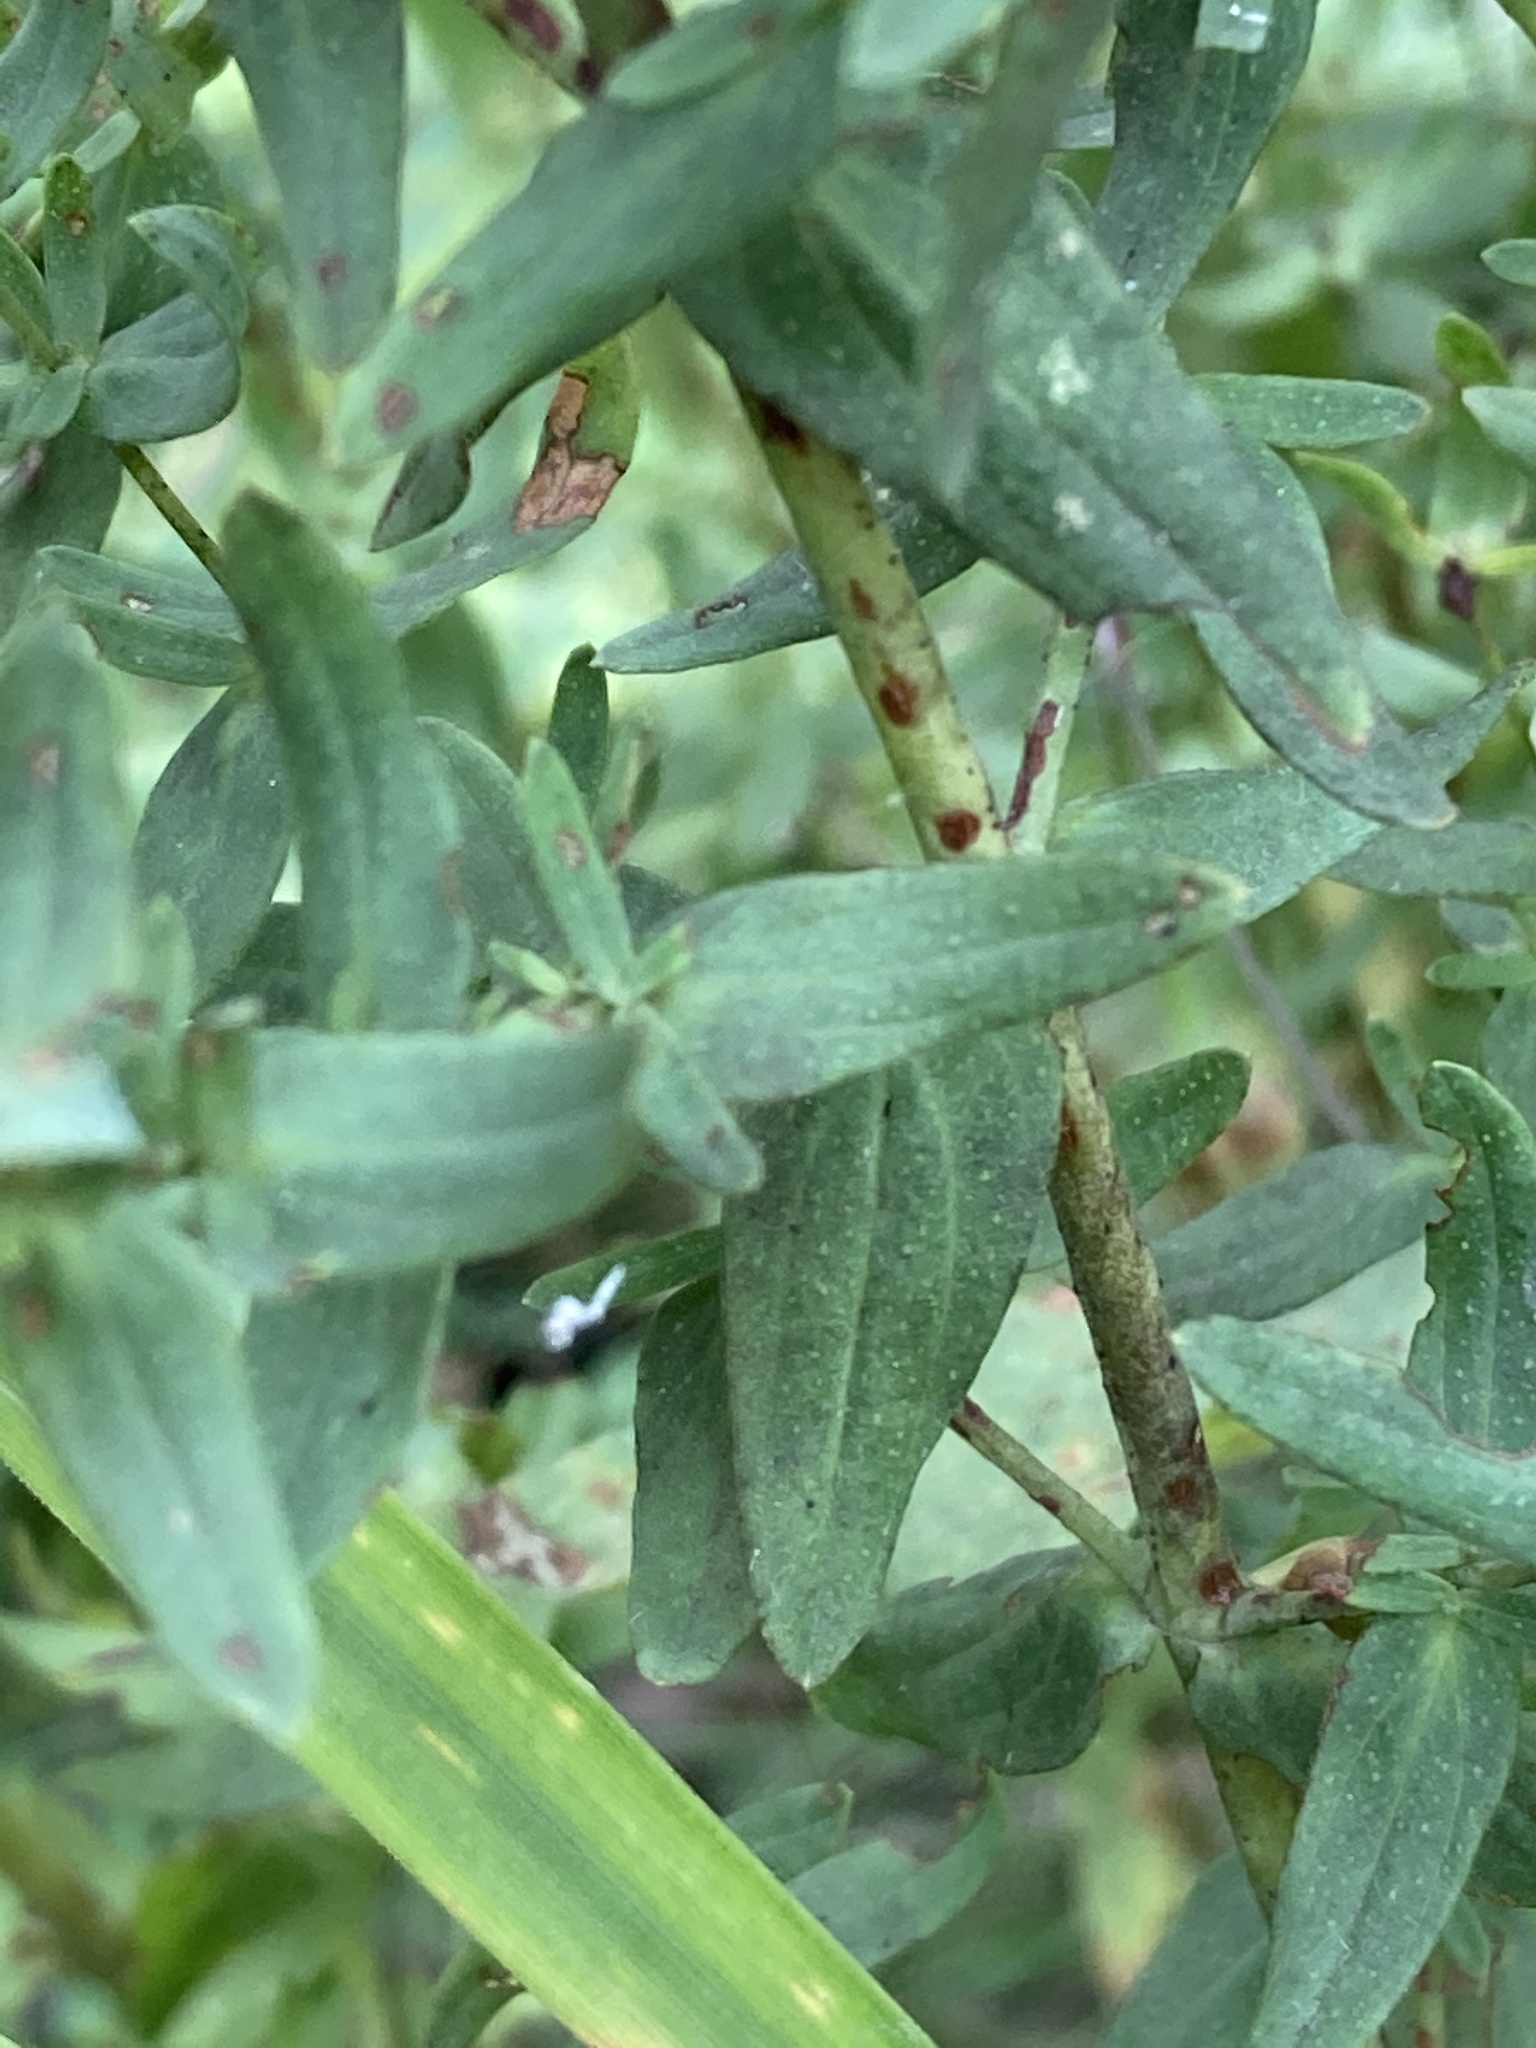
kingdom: Plantae
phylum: Tracheophyta
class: Magnoliopsida
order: Malpighiales
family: Hypericaceae
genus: Hypericum
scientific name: Hypericum perforatum
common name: Common st. johnswort
